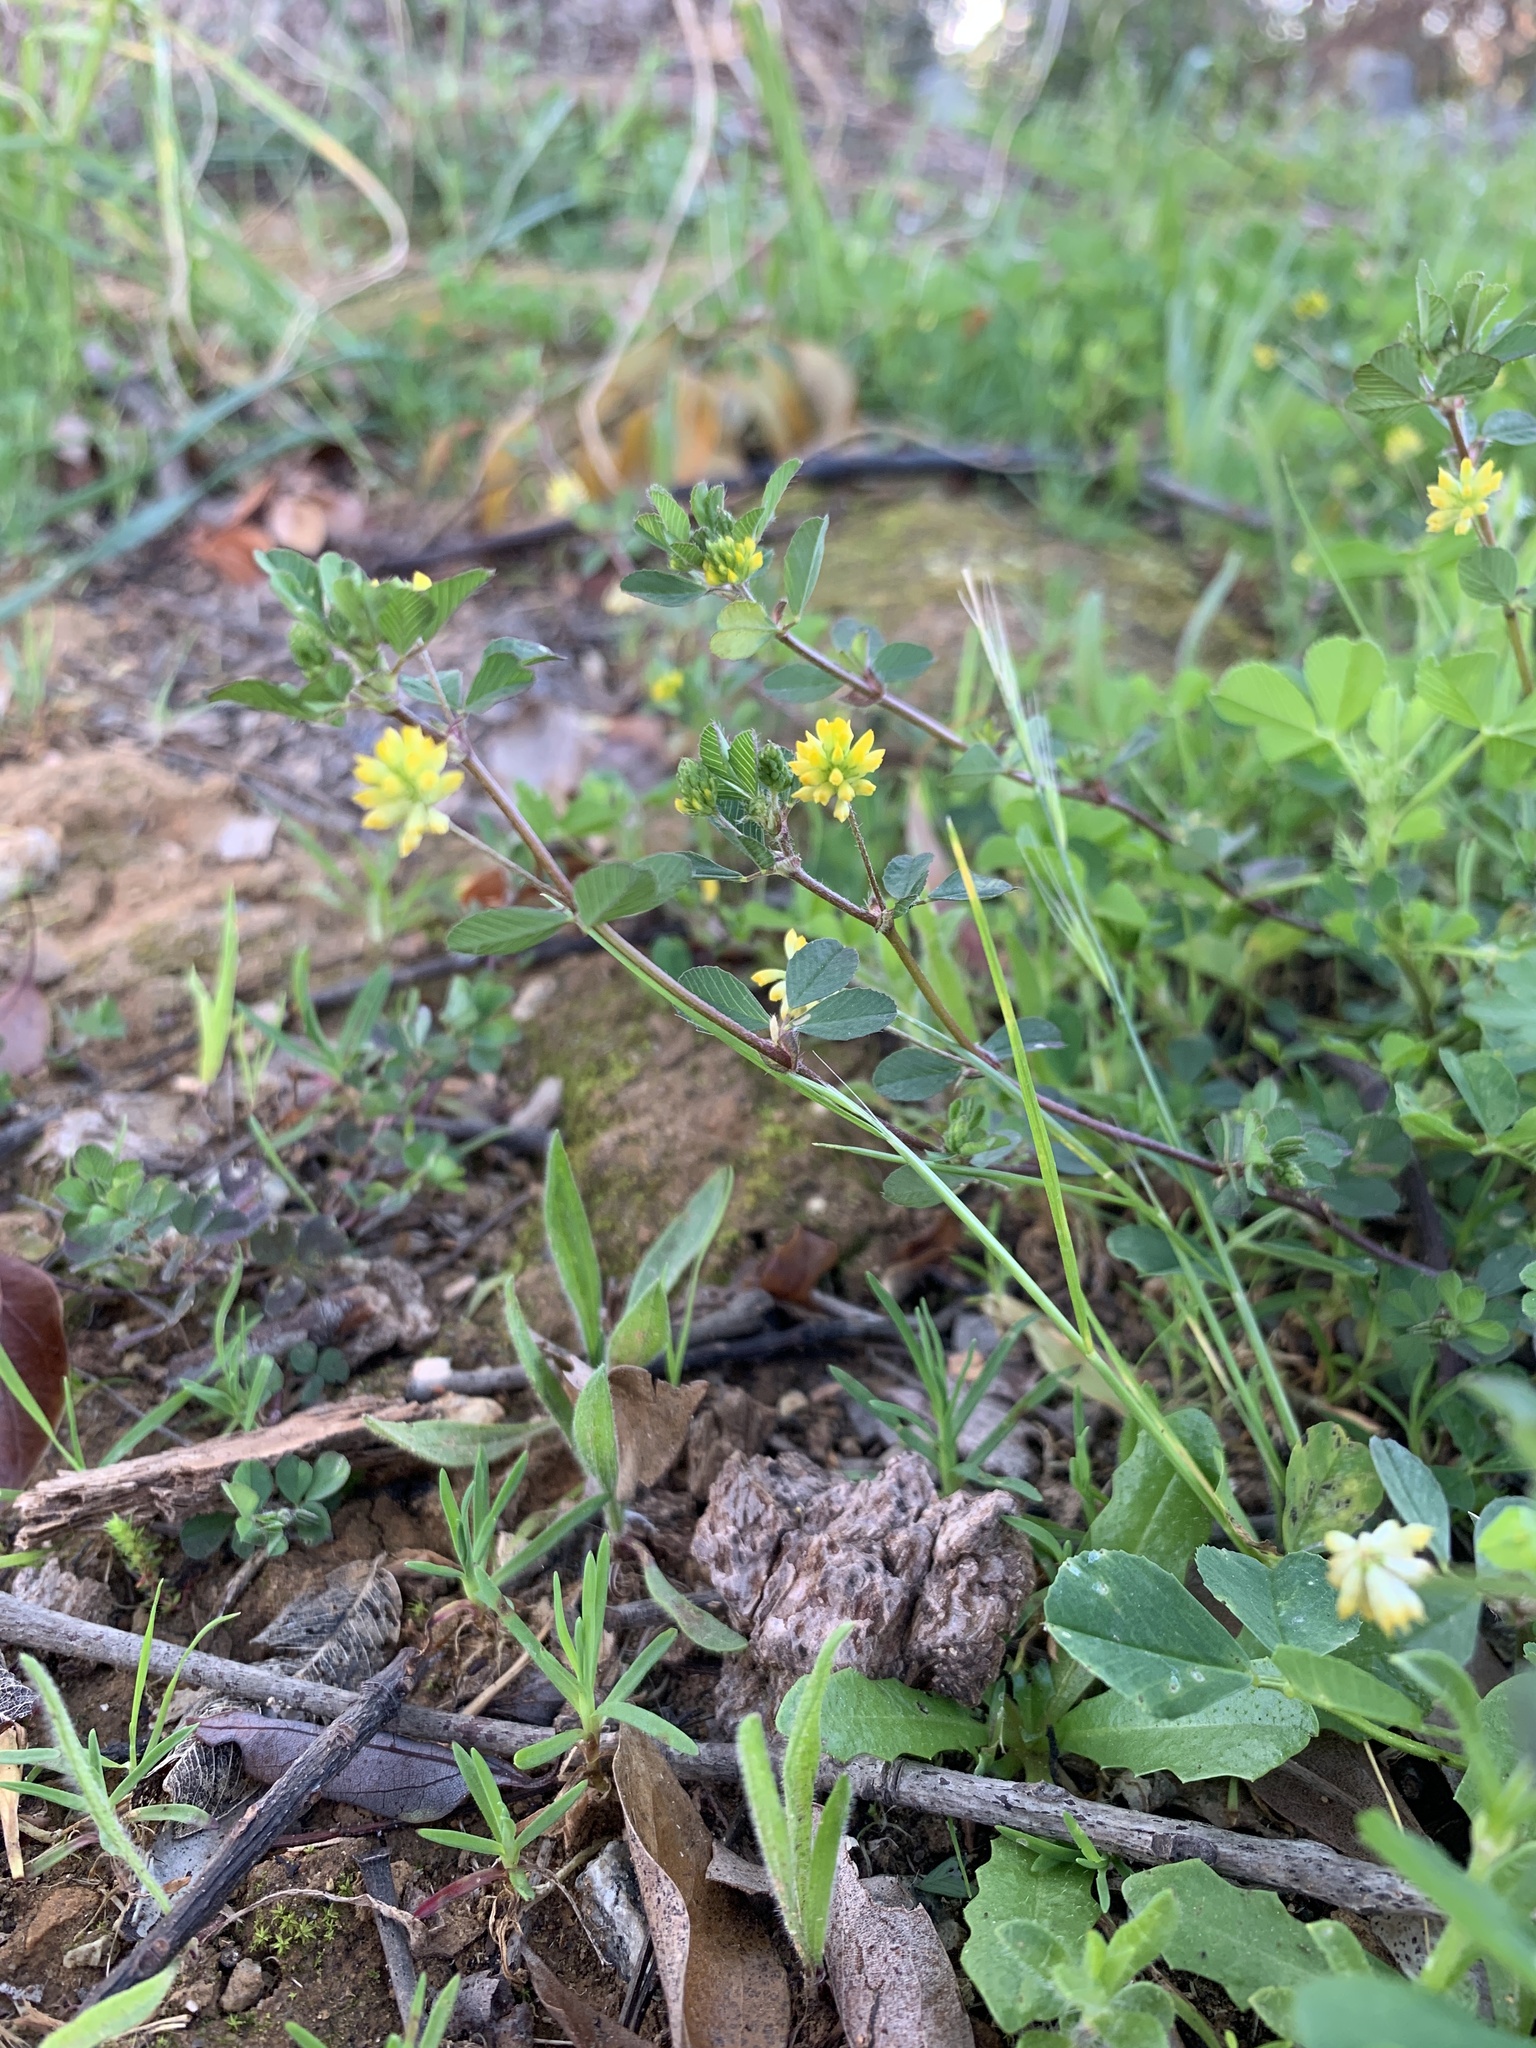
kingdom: Plantae
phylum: Tracheophyta
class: Magnoliopsida
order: Fabales
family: Fabaceae
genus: Trifolium
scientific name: Trifolium dubium
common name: Suckling clover
